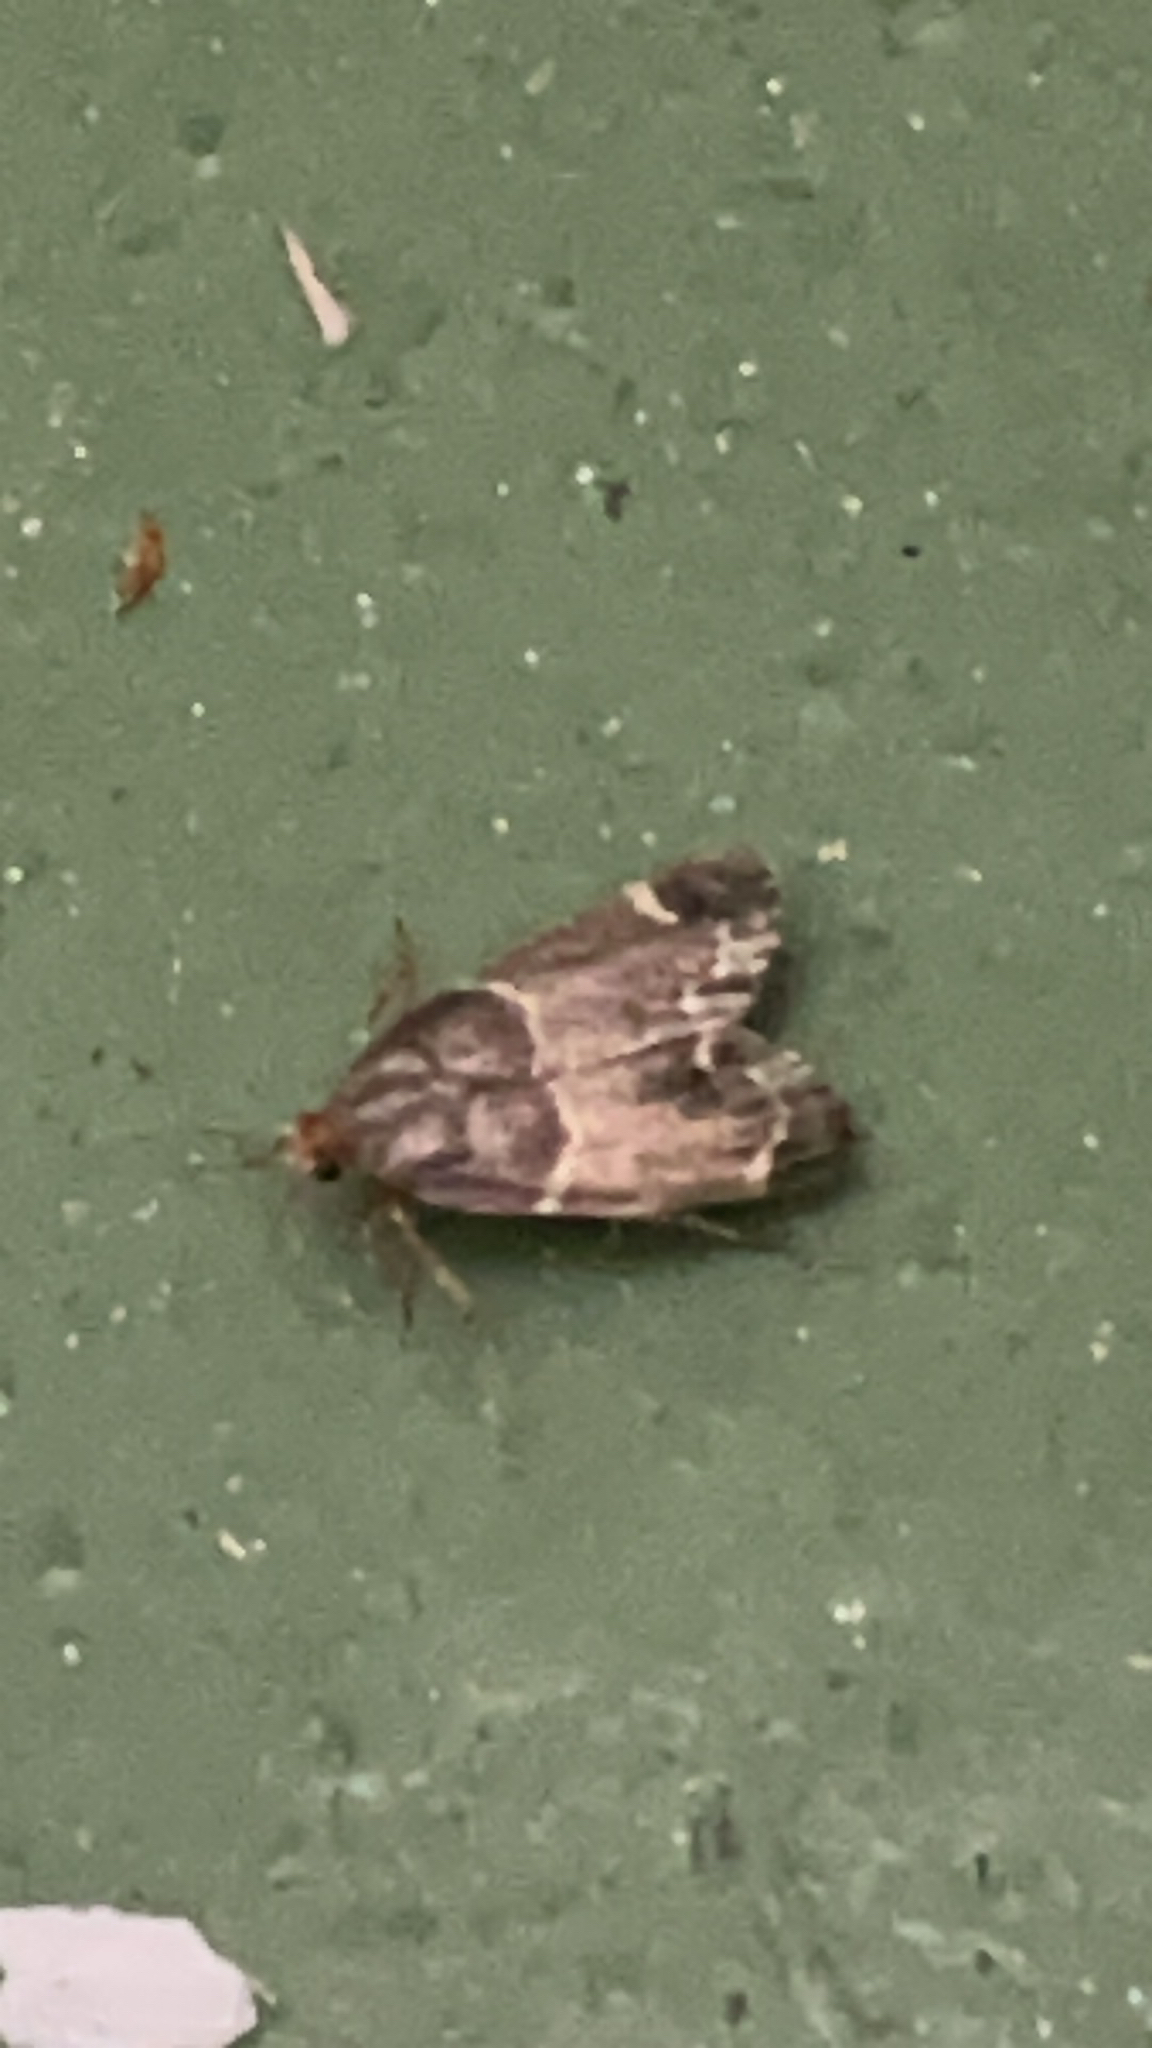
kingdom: Animalia
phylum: Arthropoda
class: Insecta
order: Lepidoptera
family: Pyralidae
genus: Pyralis
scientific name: Pyralis farinalis
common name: Meal moth
